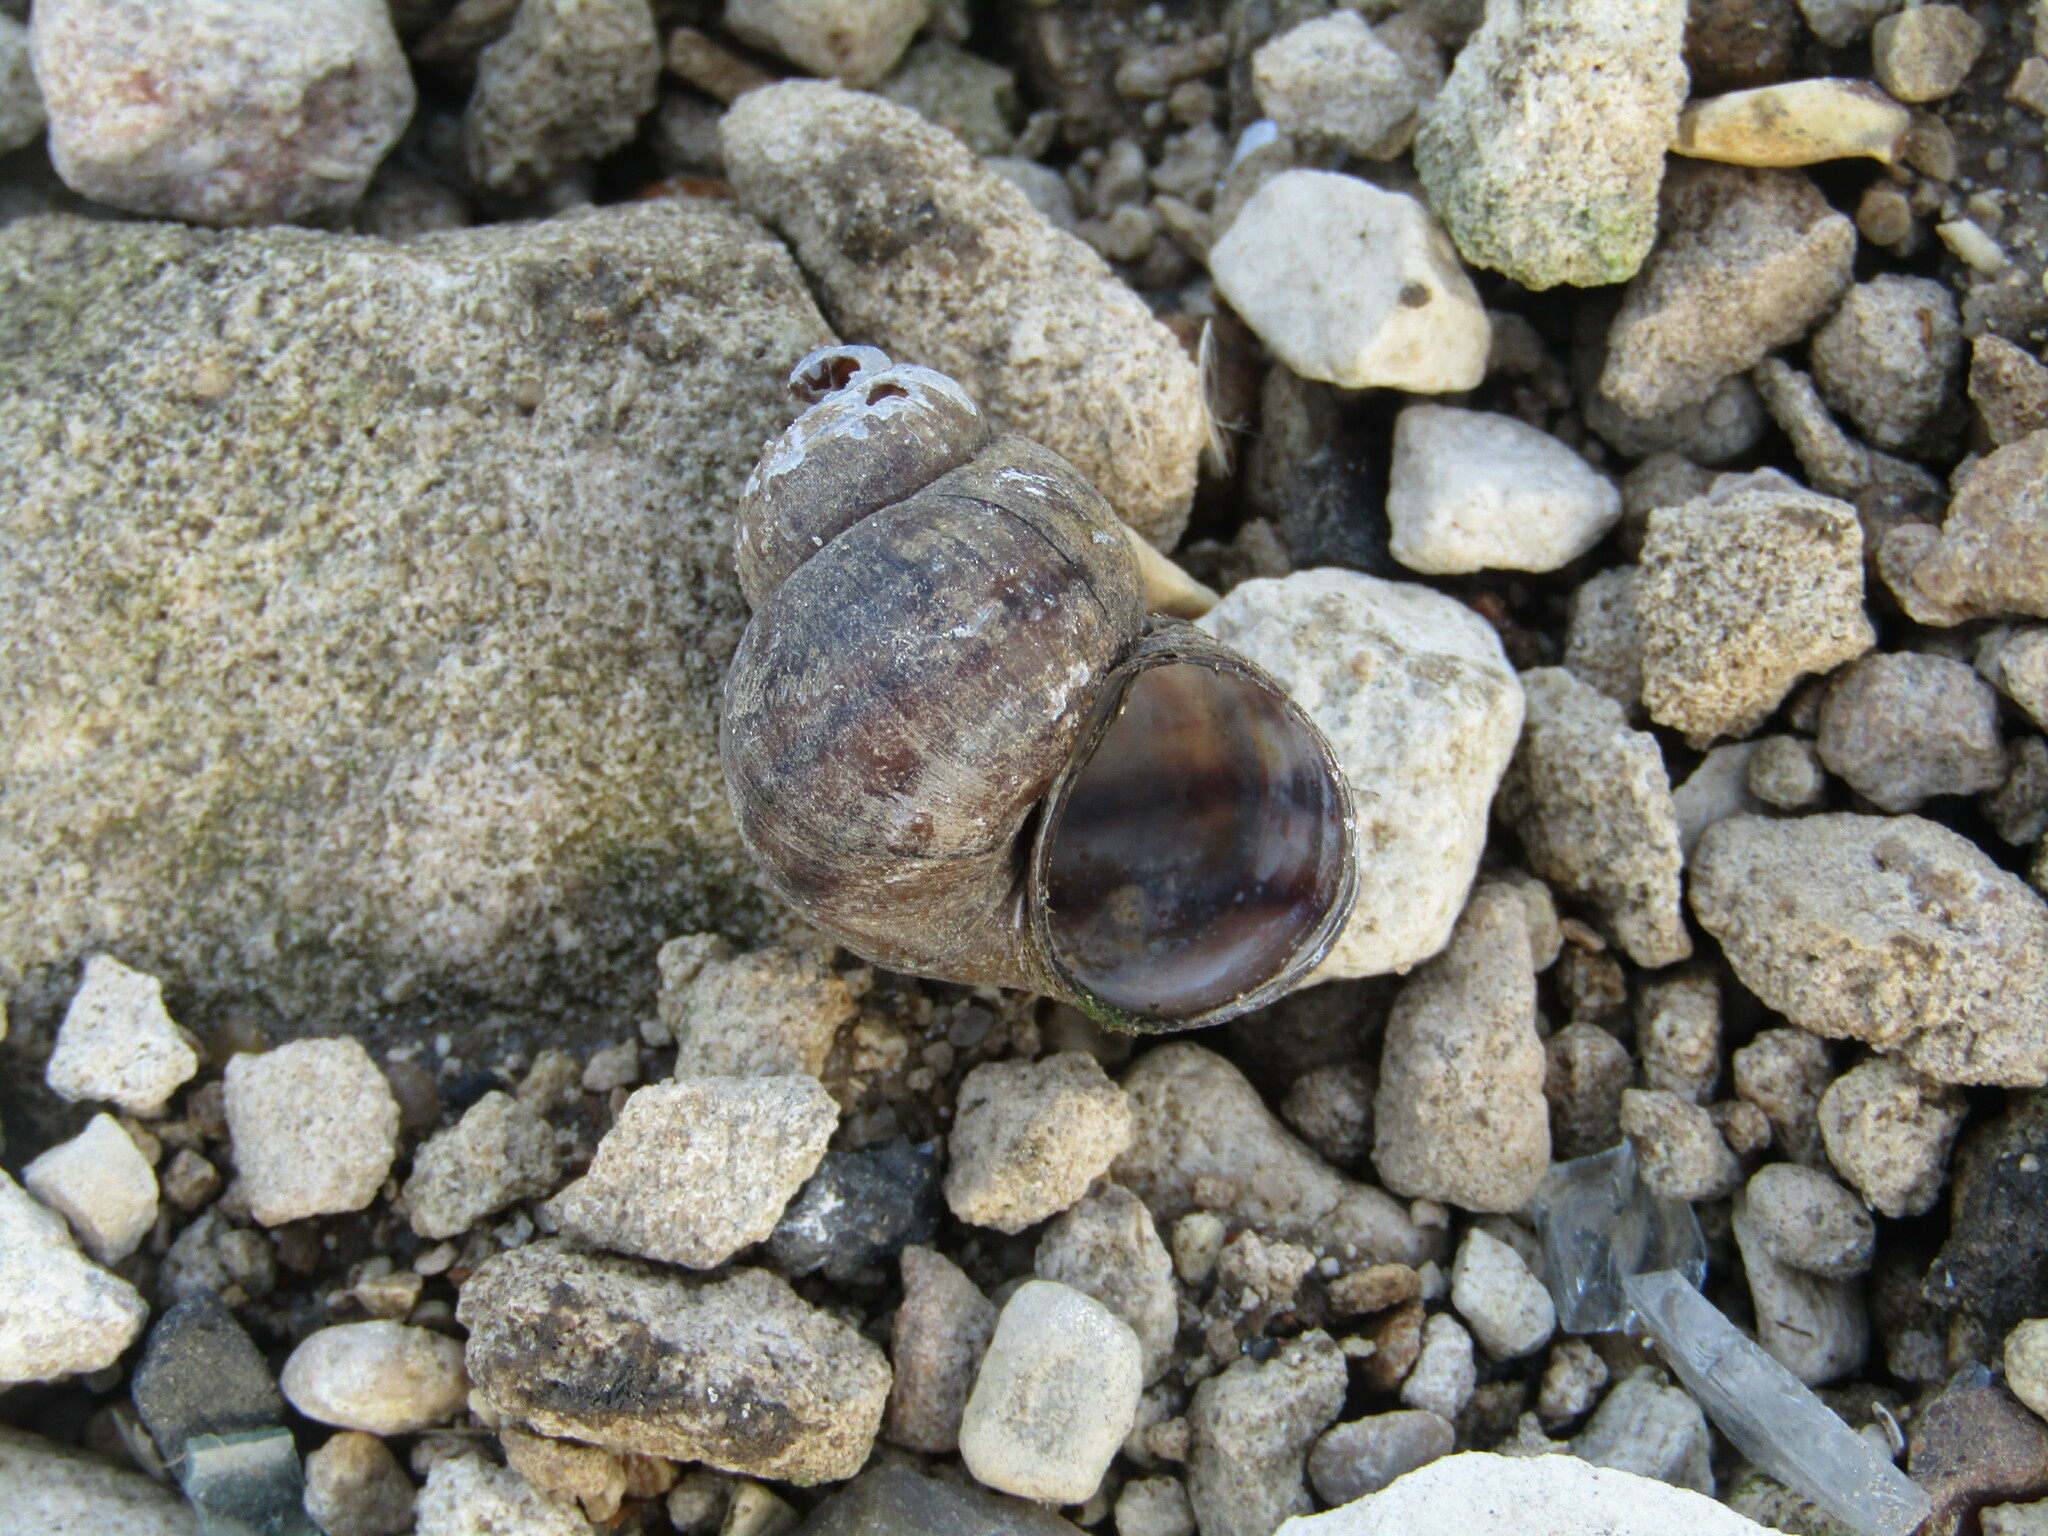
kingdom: Animalia
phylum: Mollusca
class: Gastropoda
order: Architaenioglossa
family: Viviparidae
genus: Viviparus
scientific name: Viviparus viviparus
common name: River snail
